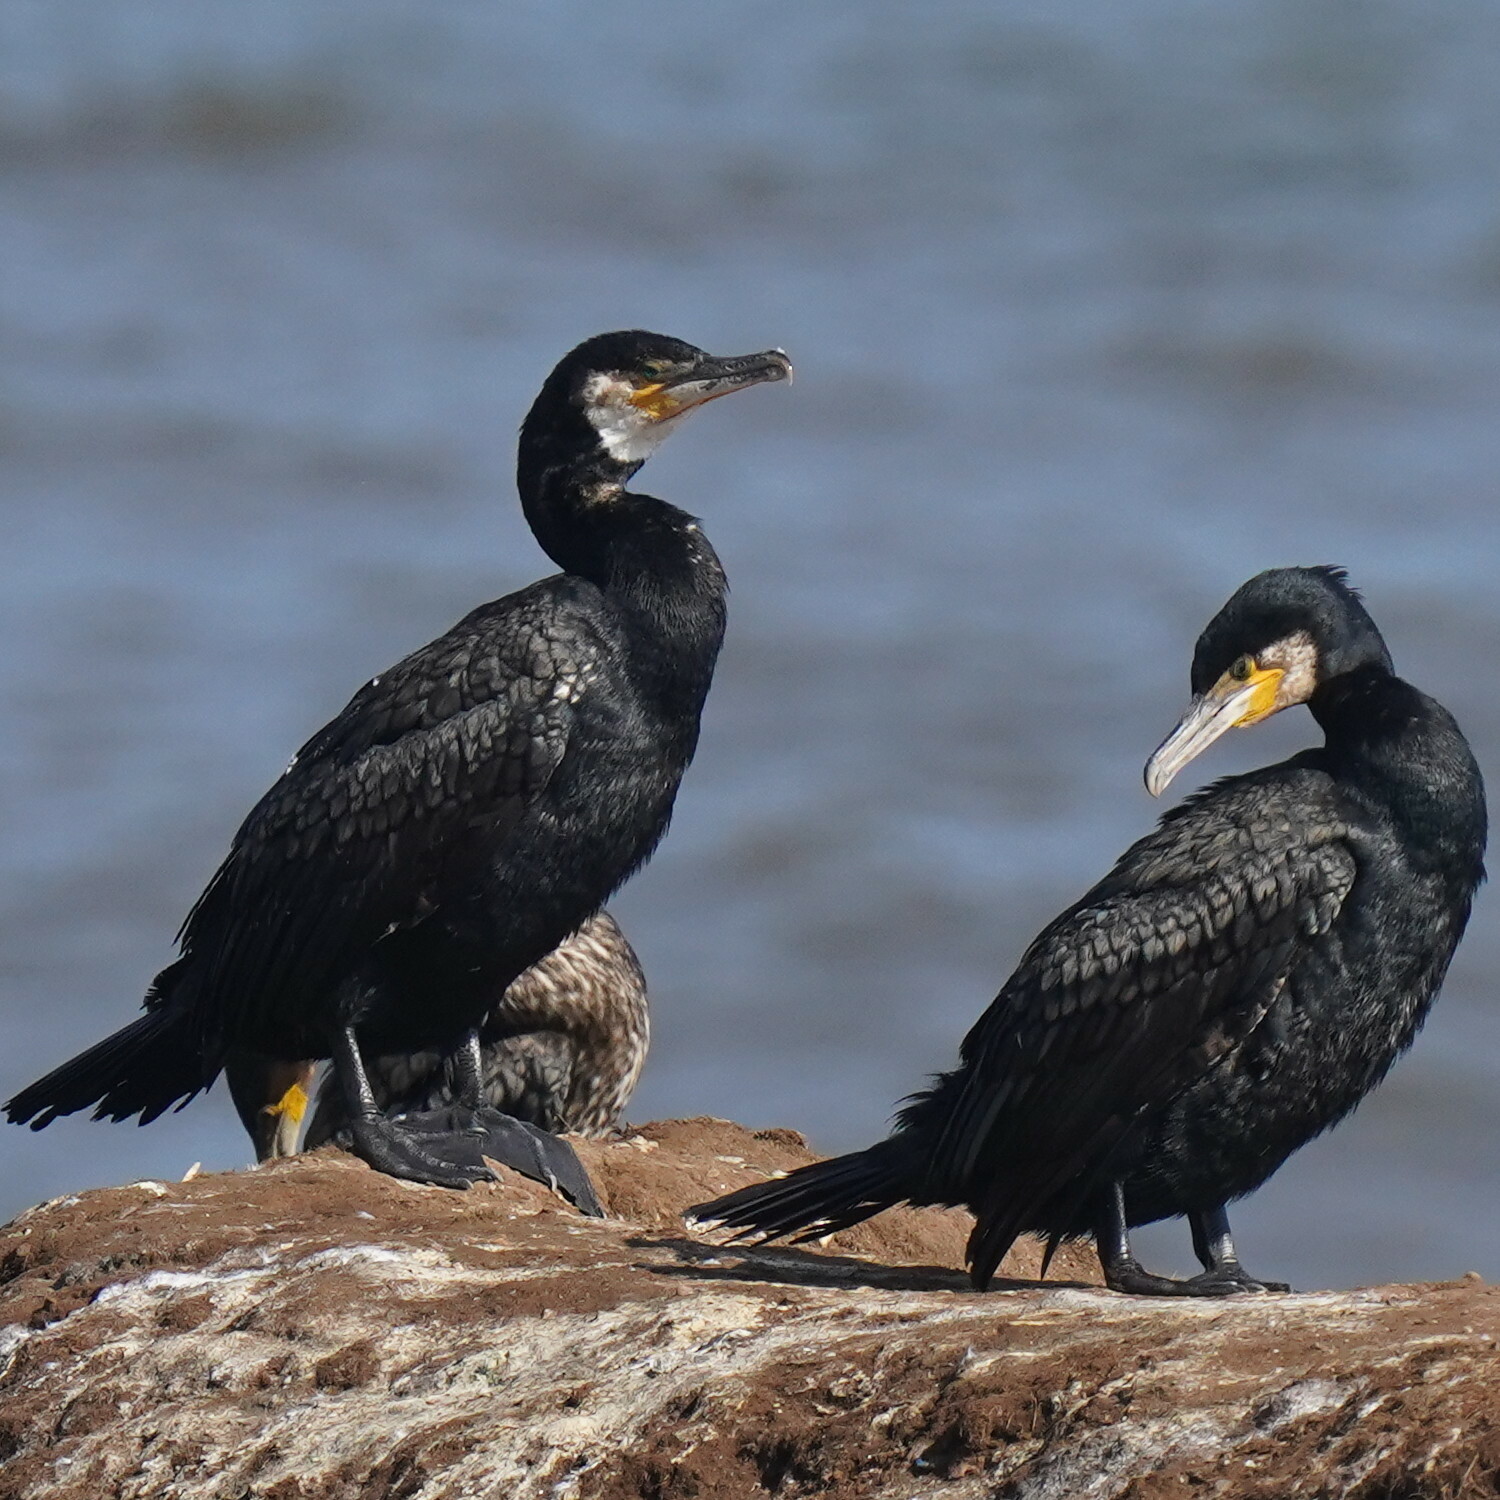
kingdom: Animalia
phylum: Chordata
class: Aves
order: Suliformes
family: Phalacrocoracidae
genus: Phalacrocorax
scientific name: Phalacrocorax carbo
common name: Great cormorant
